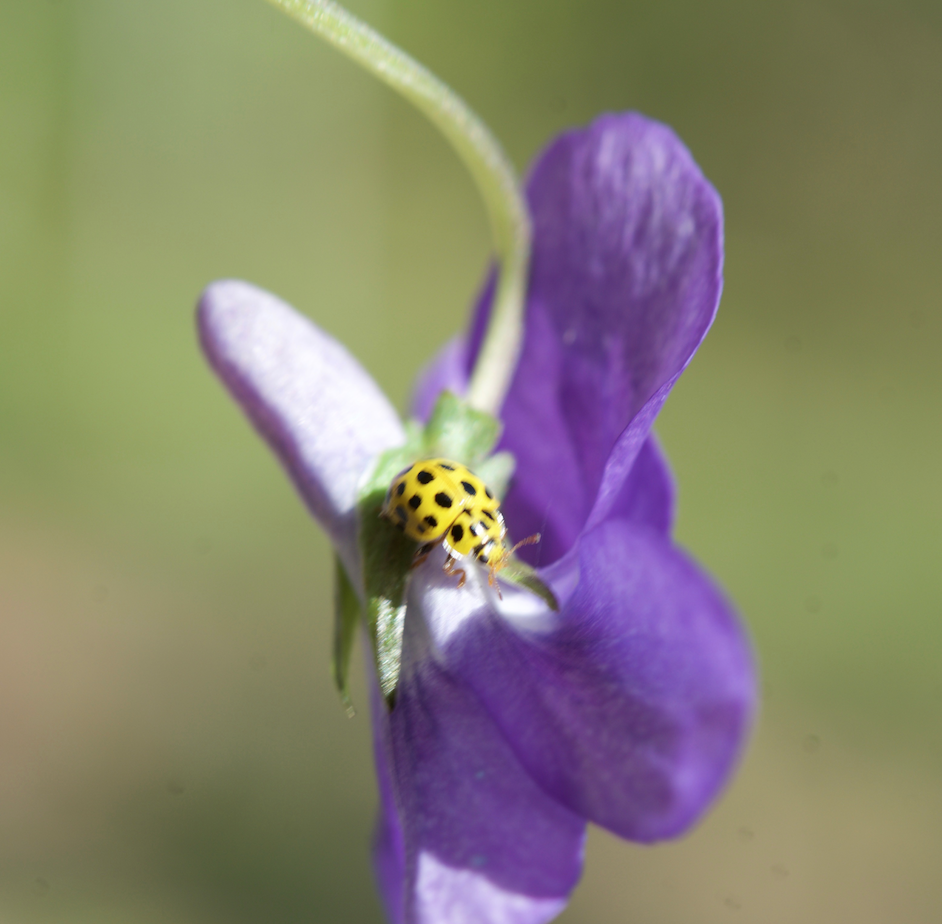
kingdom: Animalia
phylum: Arthropoda
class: Insecta
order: Coleoptera
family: Coccinellidae
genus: Psyllobora
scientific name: Psyllobora vigintiduopunctata
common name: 22-spot ladybird
